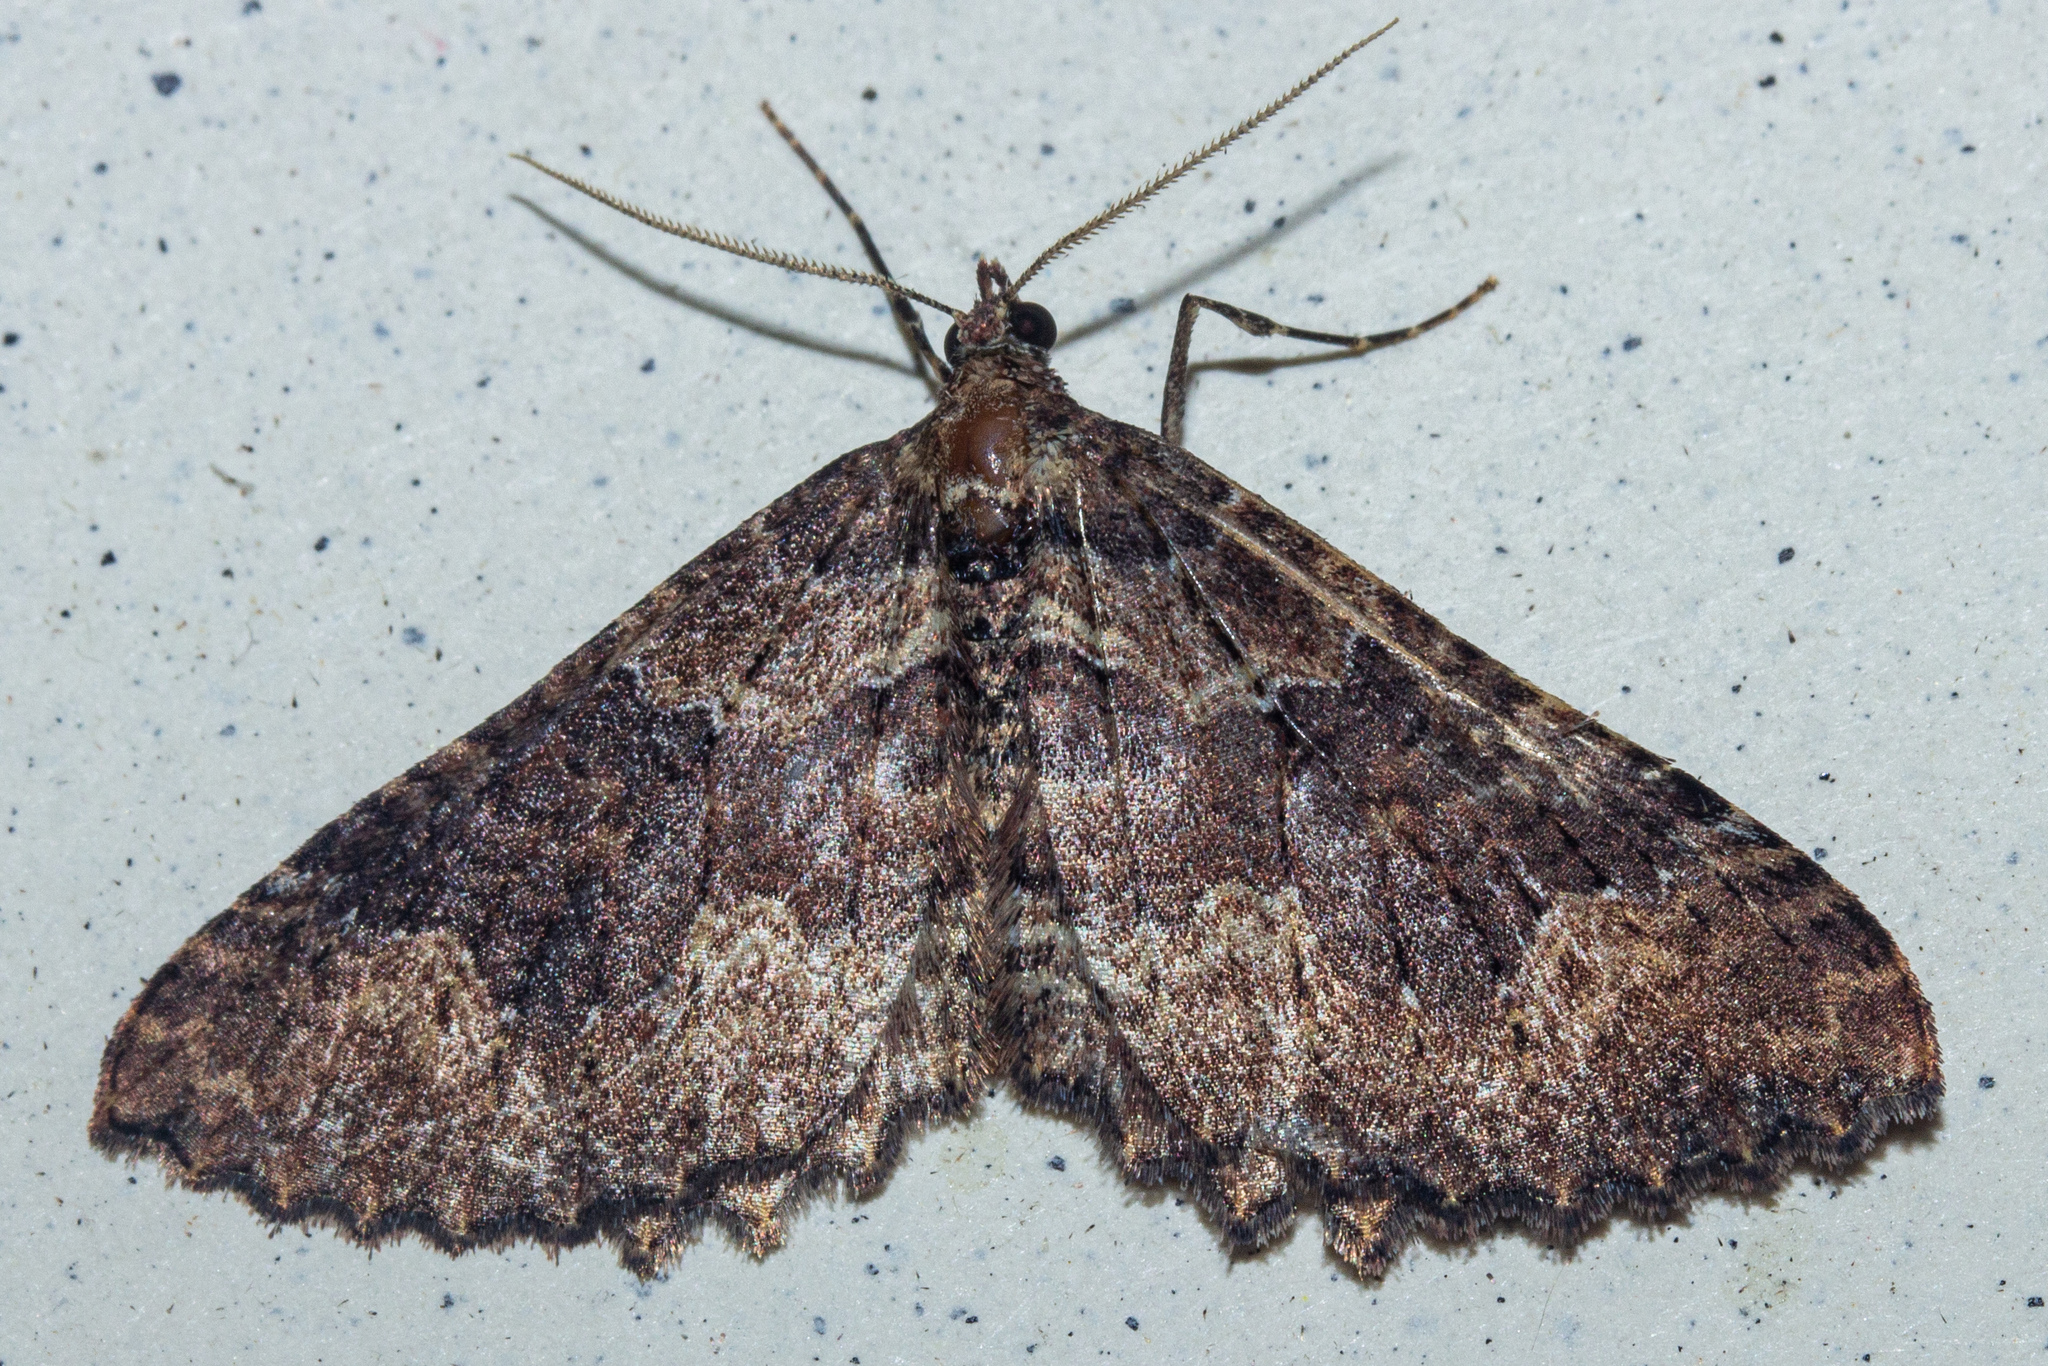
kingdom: Animalia
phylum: Arthropoda
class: Insecta
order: Lepidoptera
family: Geometridae
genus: Austrocidaria
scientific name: Austrocidaria cedrinodes
